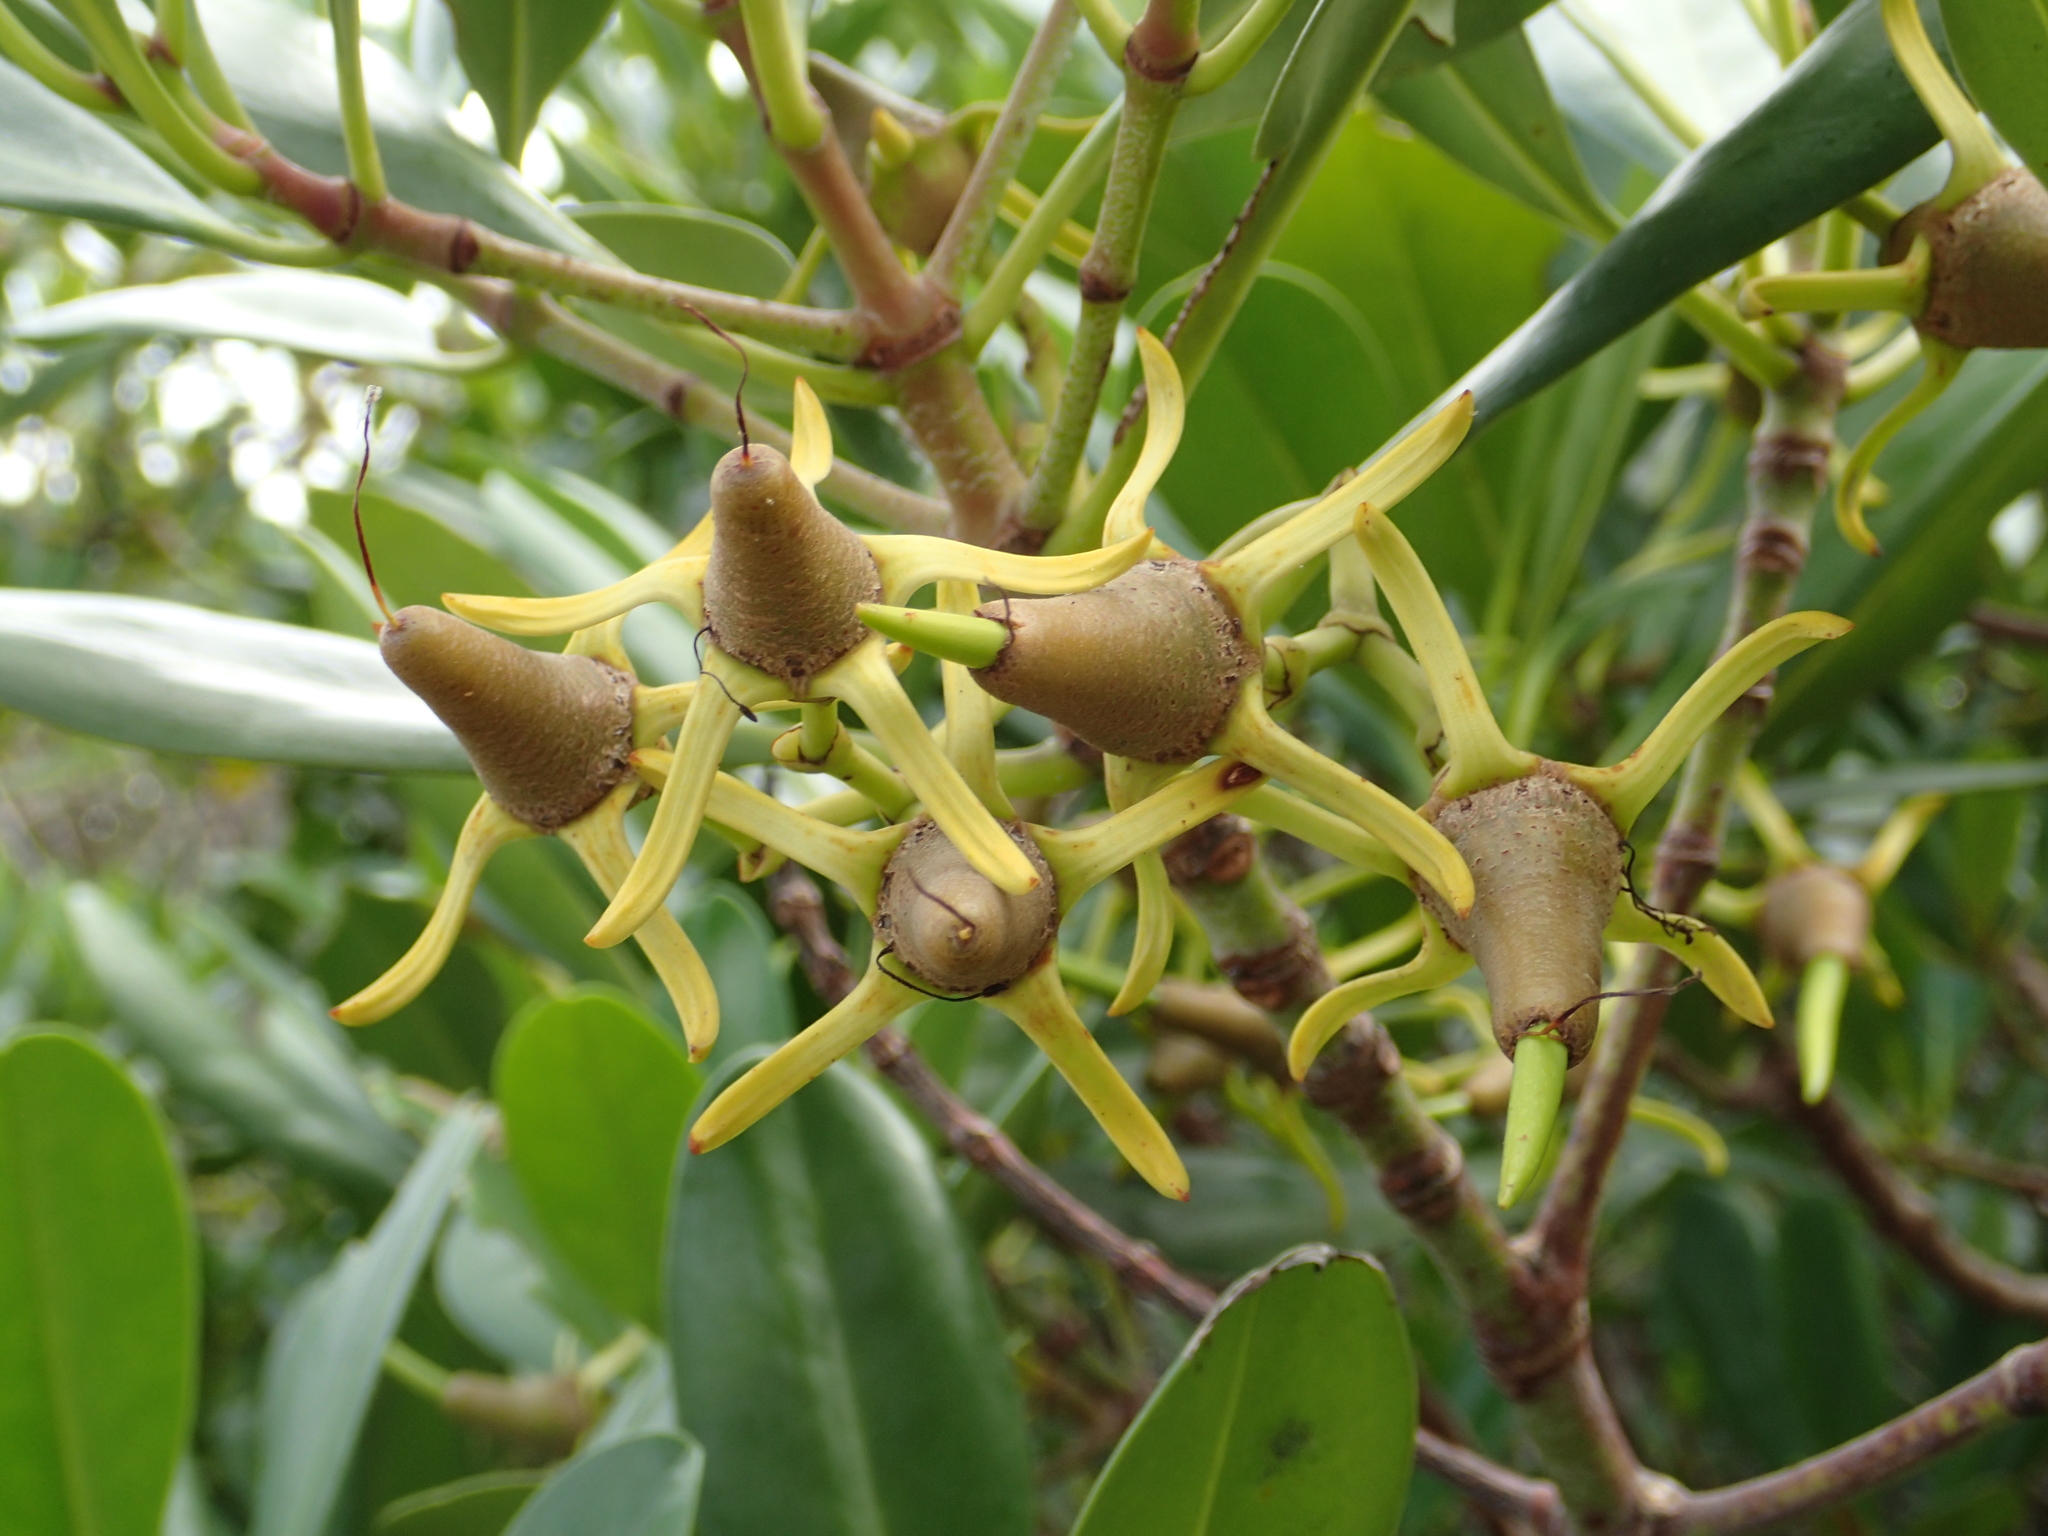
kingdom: Plantae
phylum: Tracheophyta
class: Magnoliopsida
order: Malpighiales
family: Rhizophoraceae
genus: Kandelia
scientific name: Kandelia obovata
